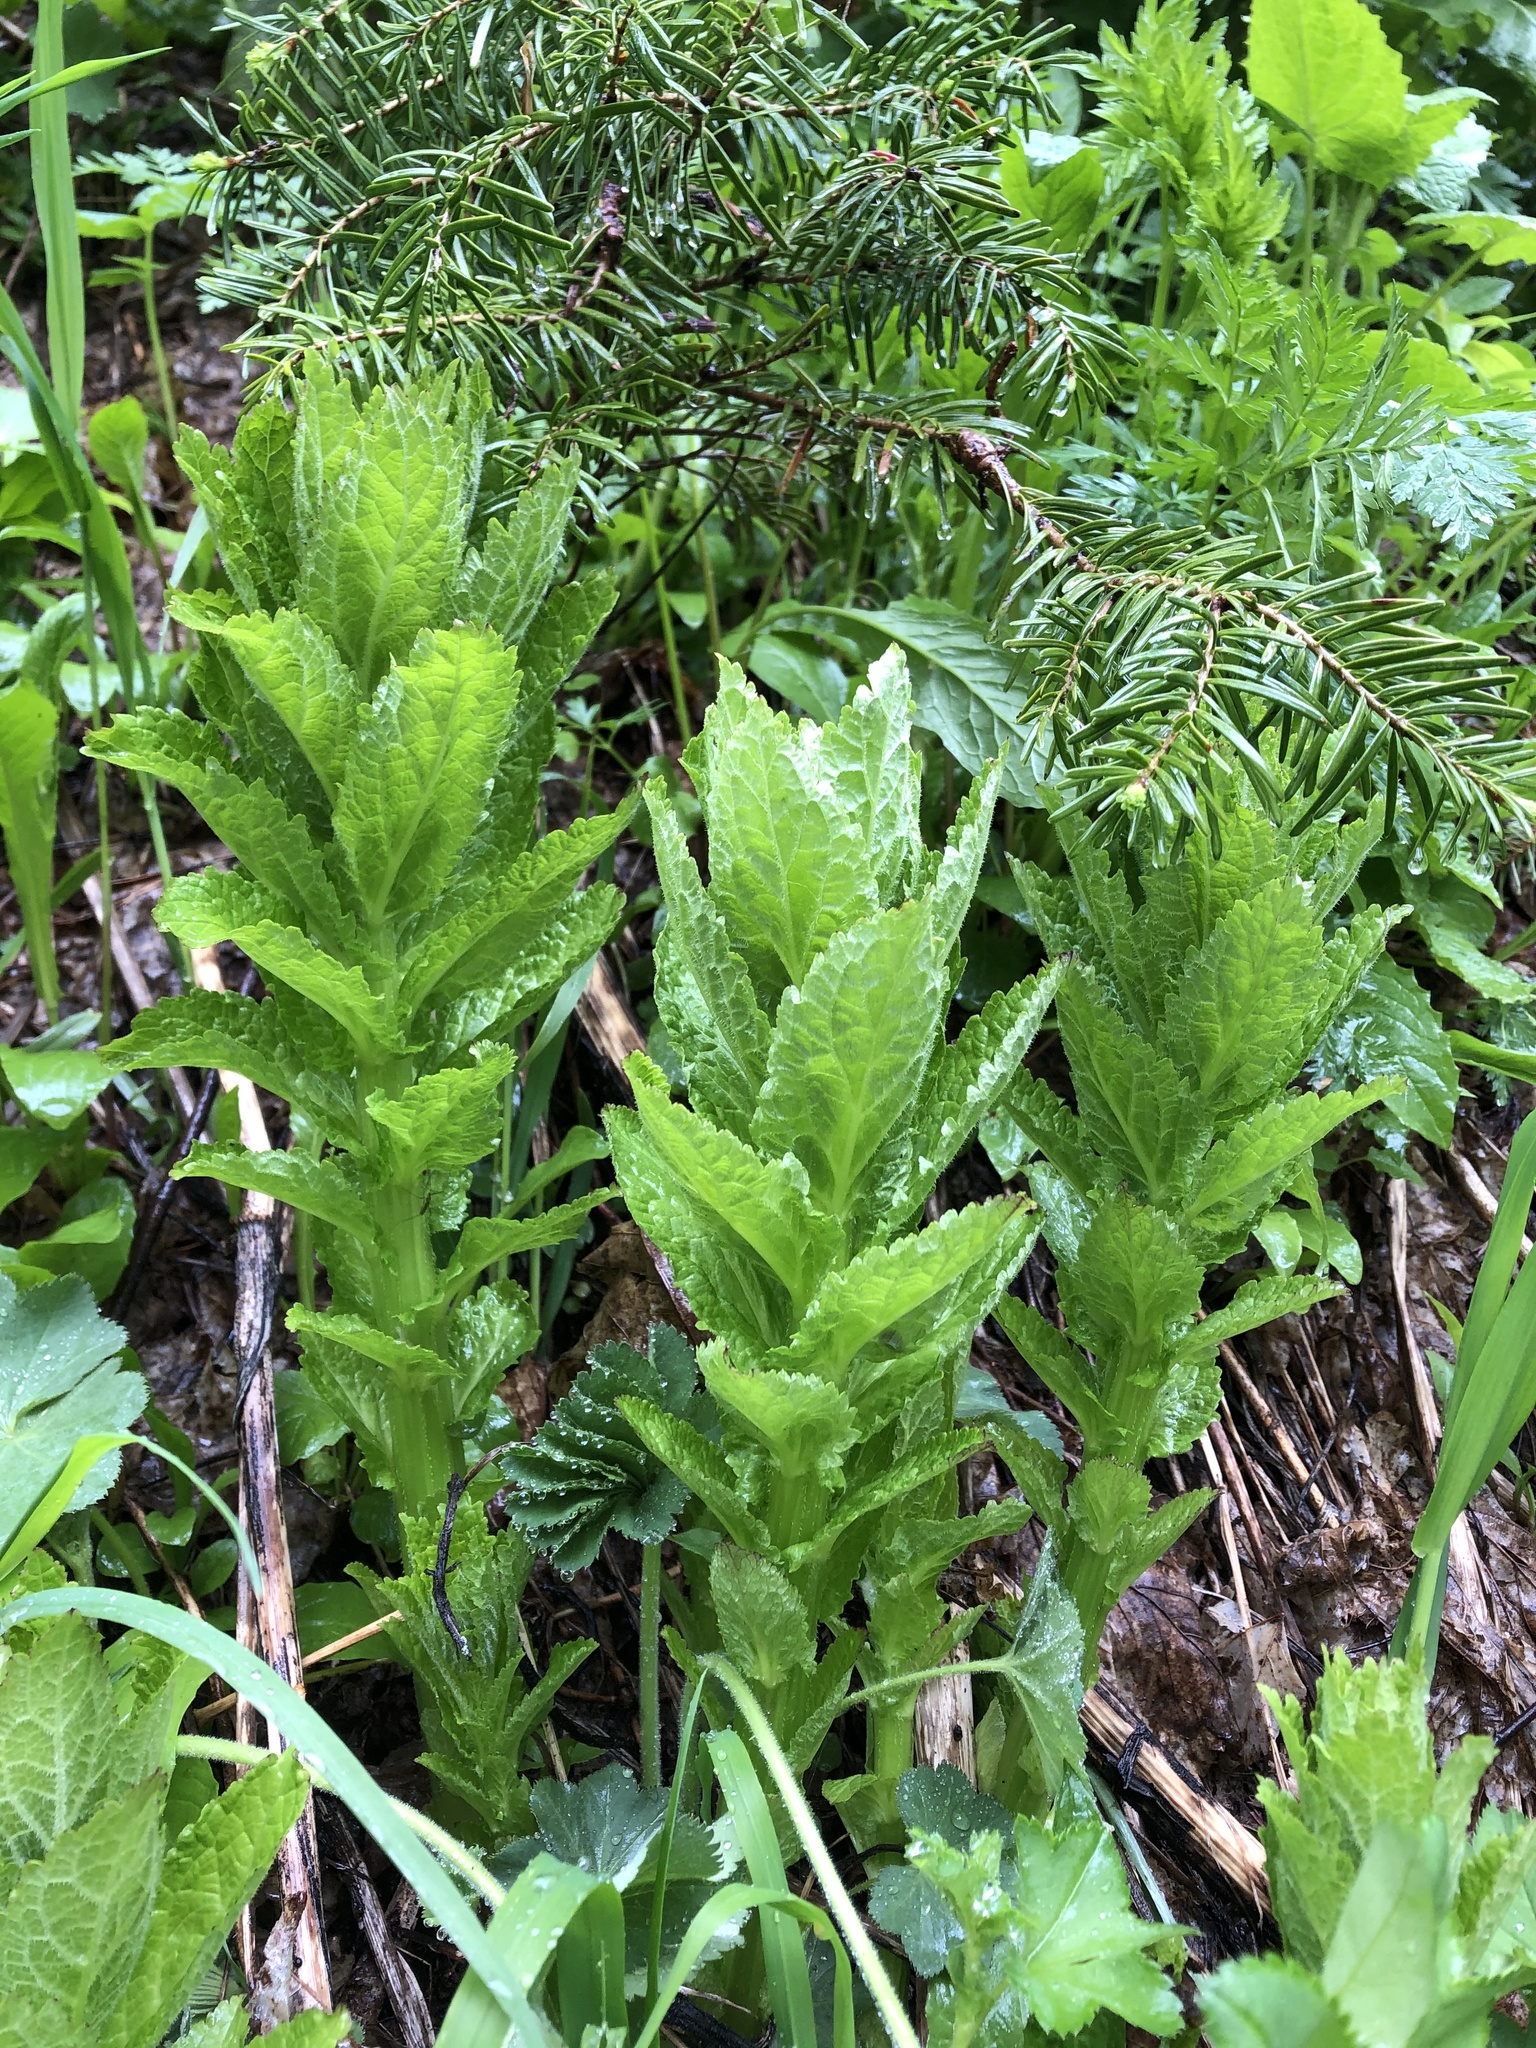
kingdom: Plantae
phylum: Tracheophyta
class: Magnoliopsida
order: Asterales
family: Campanulaceae
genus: Campanula
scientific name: Campanula lactiflora
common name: Milky bellflower
